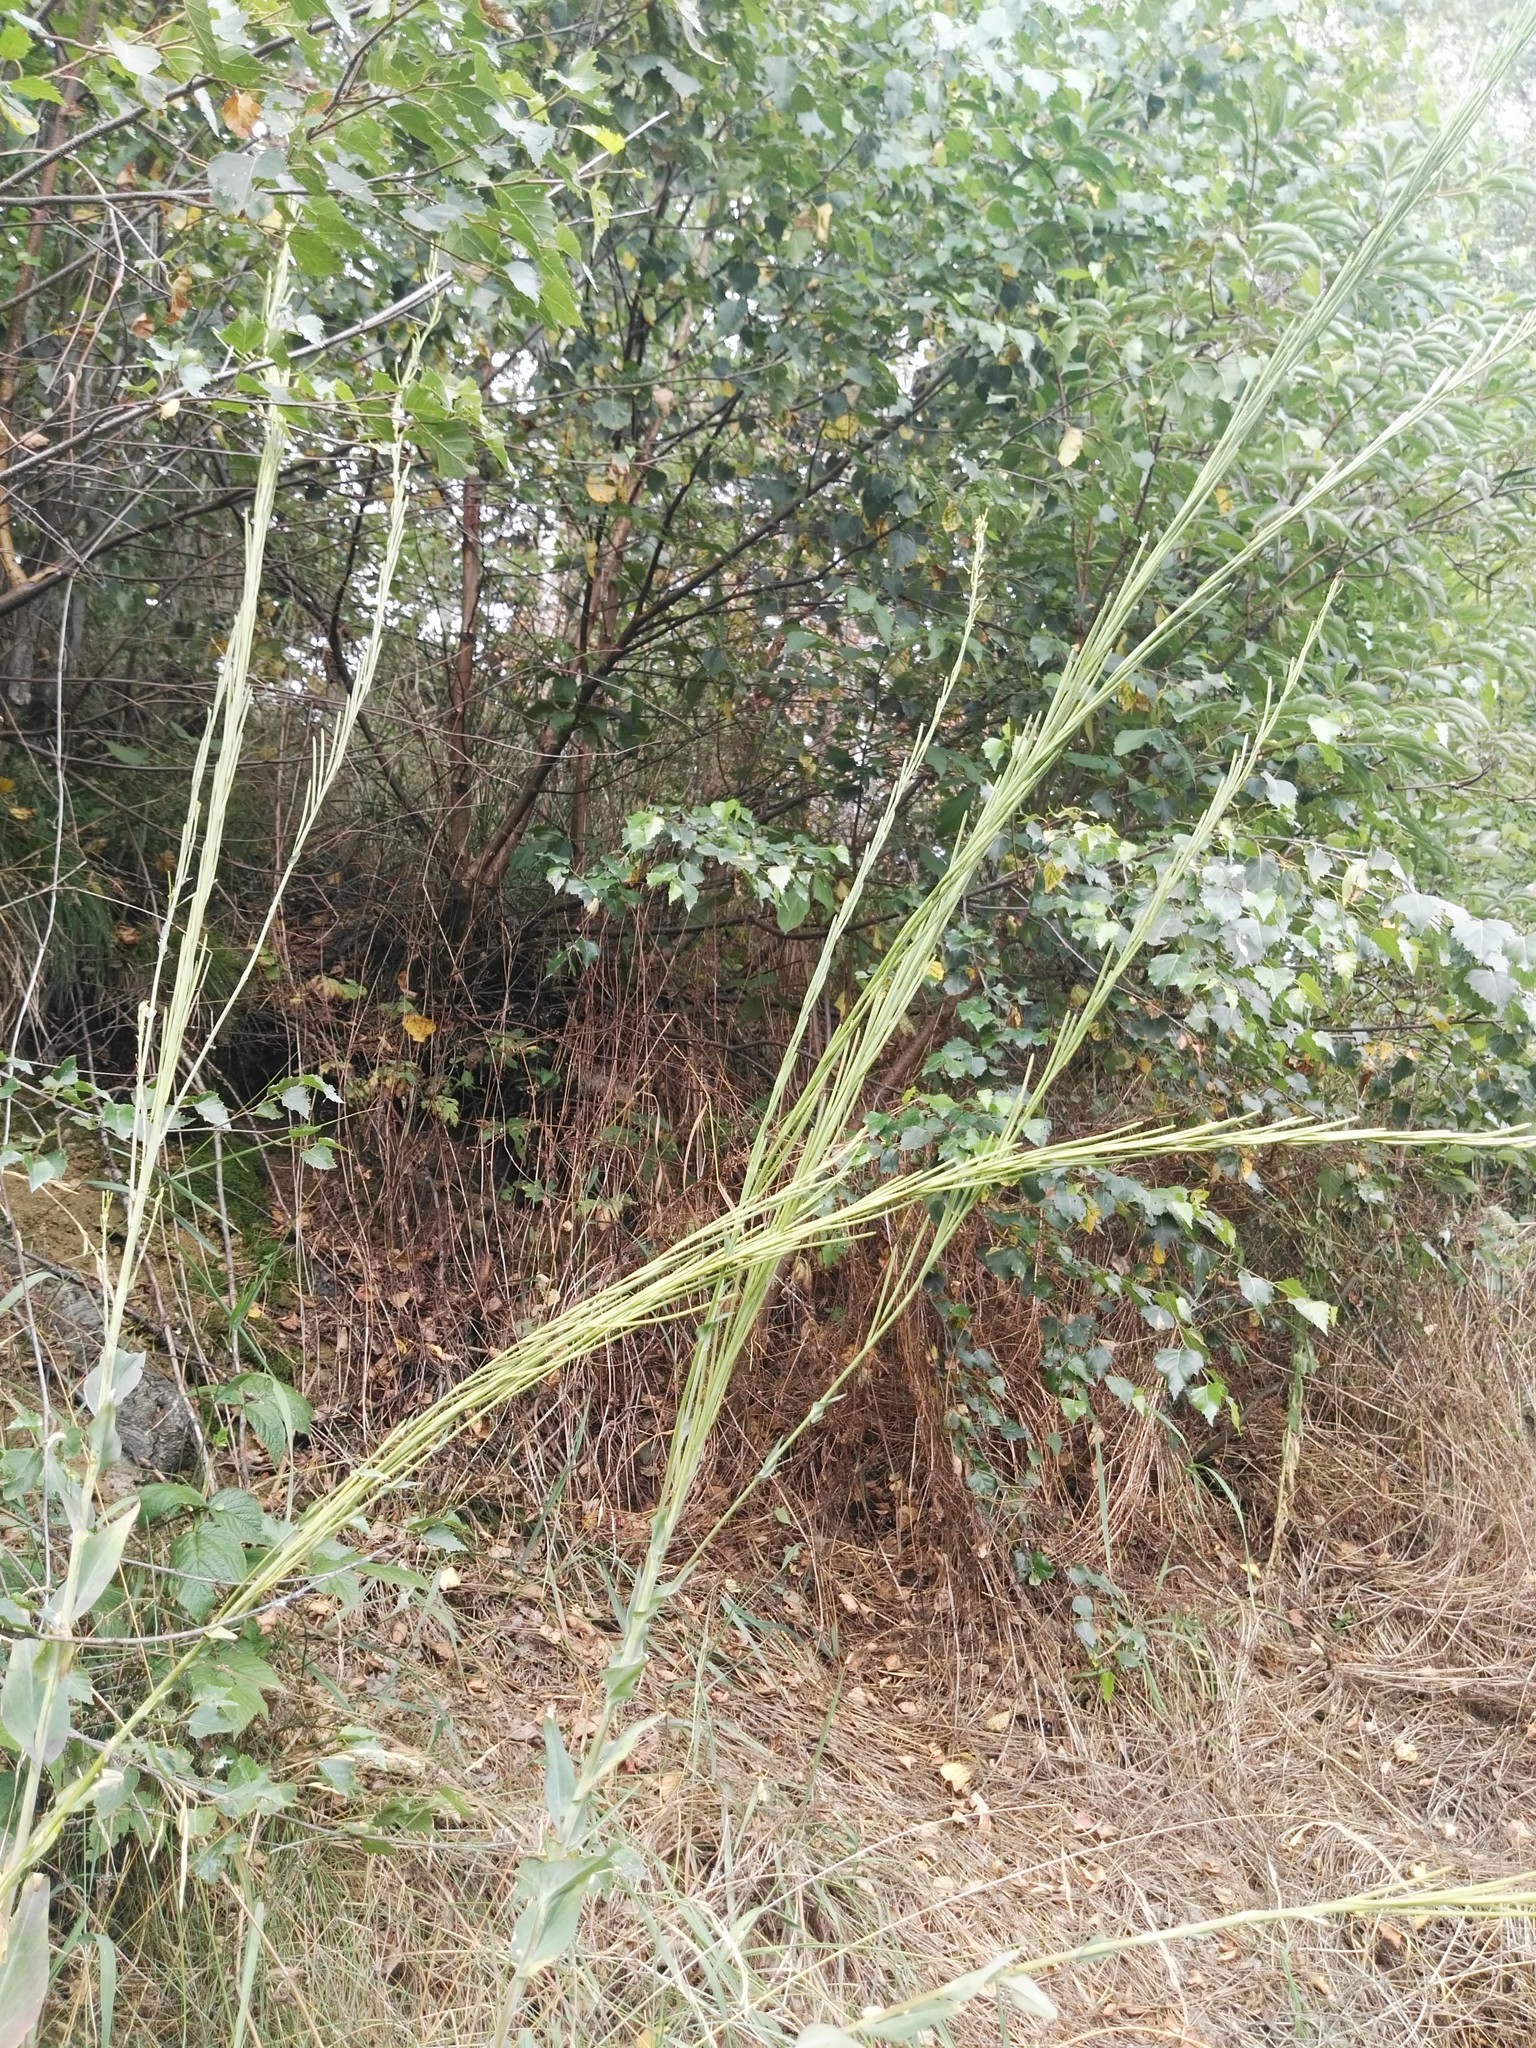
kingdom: Plantae
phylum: Tracheophyta
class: Magnoliopsida
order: Brassicales
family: Brassicaceae
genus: Turritis
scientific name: Turritis glabra
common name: Tower rockcress
